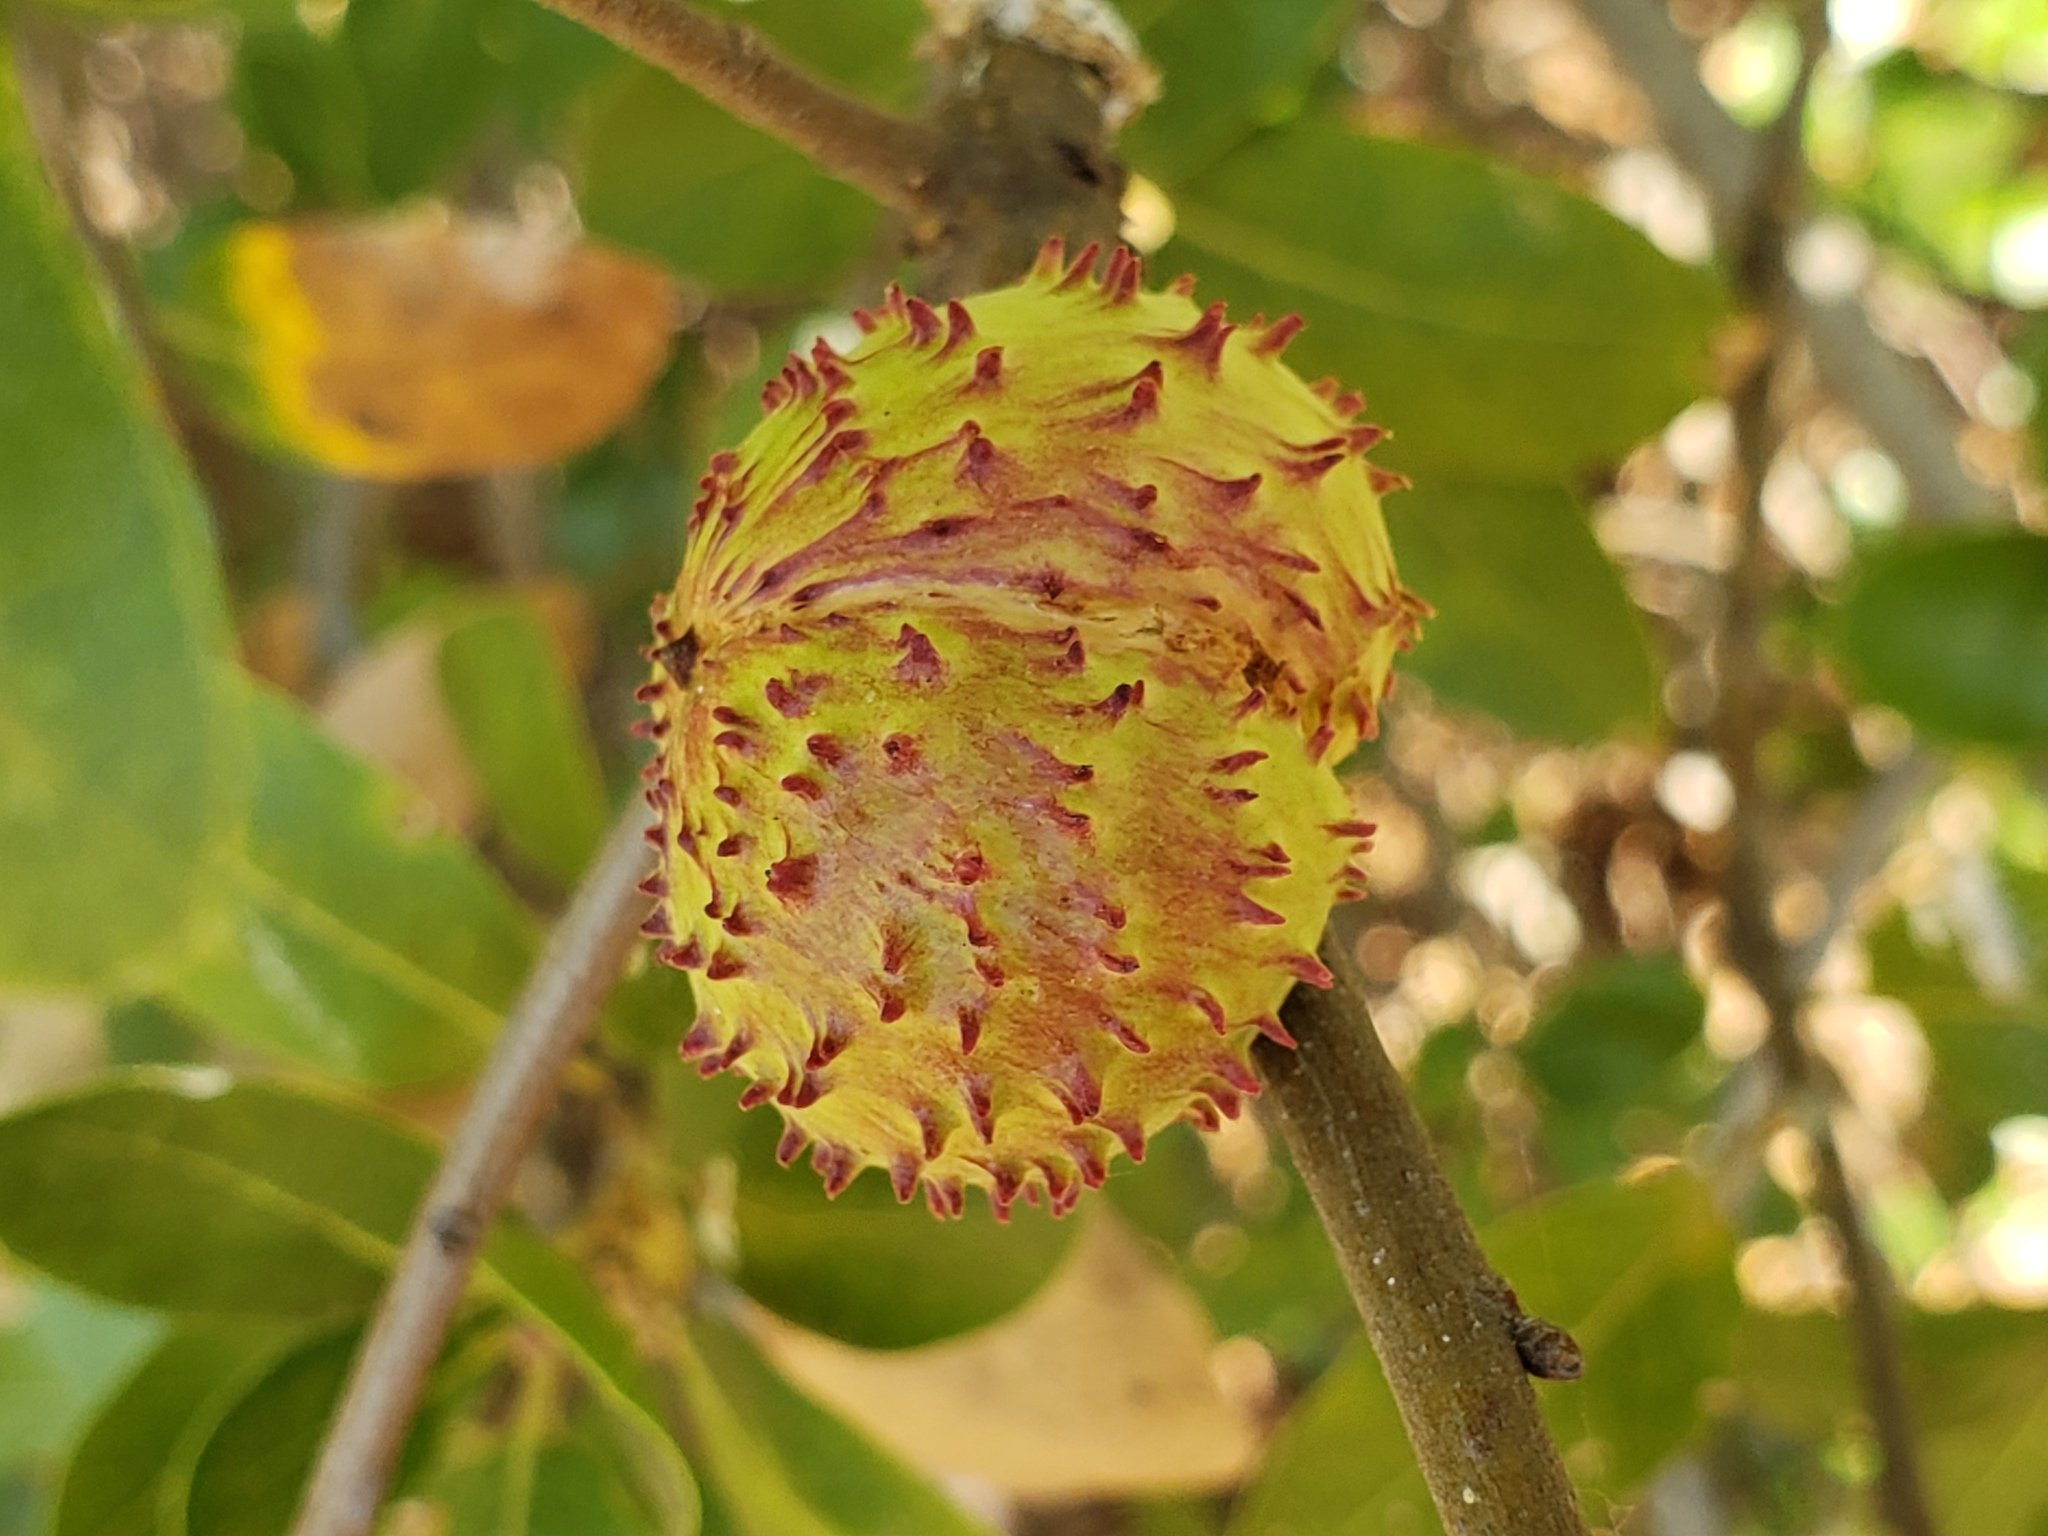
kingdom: Animalia
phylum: Arthropoda
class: Insecta
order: Hymenoptera
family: Cynipidae
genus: Amphibolips
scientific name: Amphibolips quercuspomiformis
